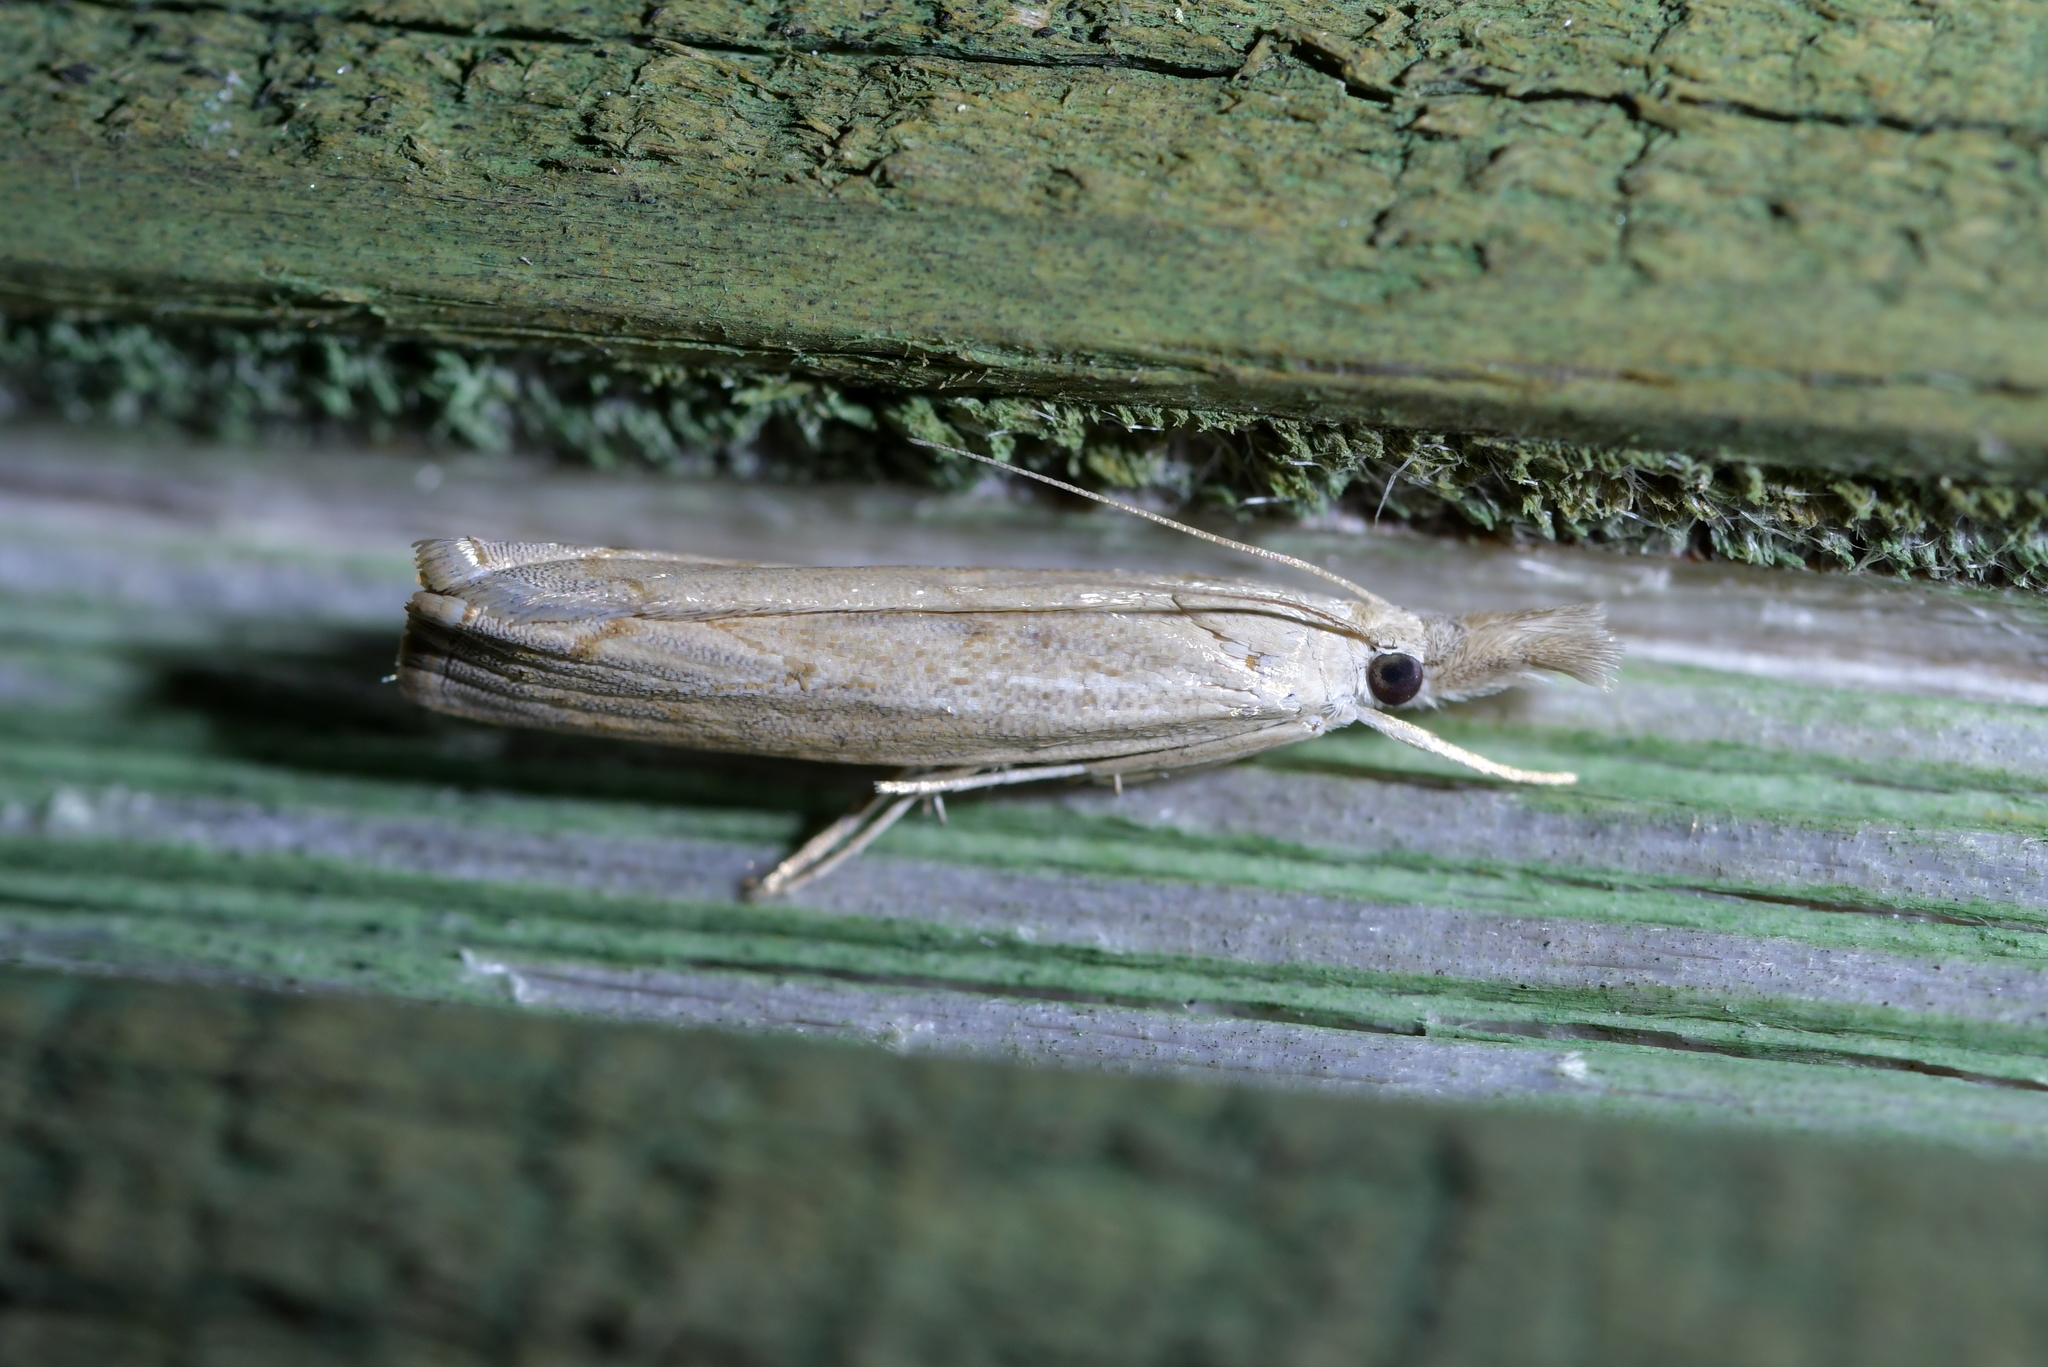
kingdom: Animalia
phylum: Arthropoda
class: Insecta
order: Lepidoptera
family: Crambidae
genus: Culladia
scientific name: Culladia cuneiferellus
